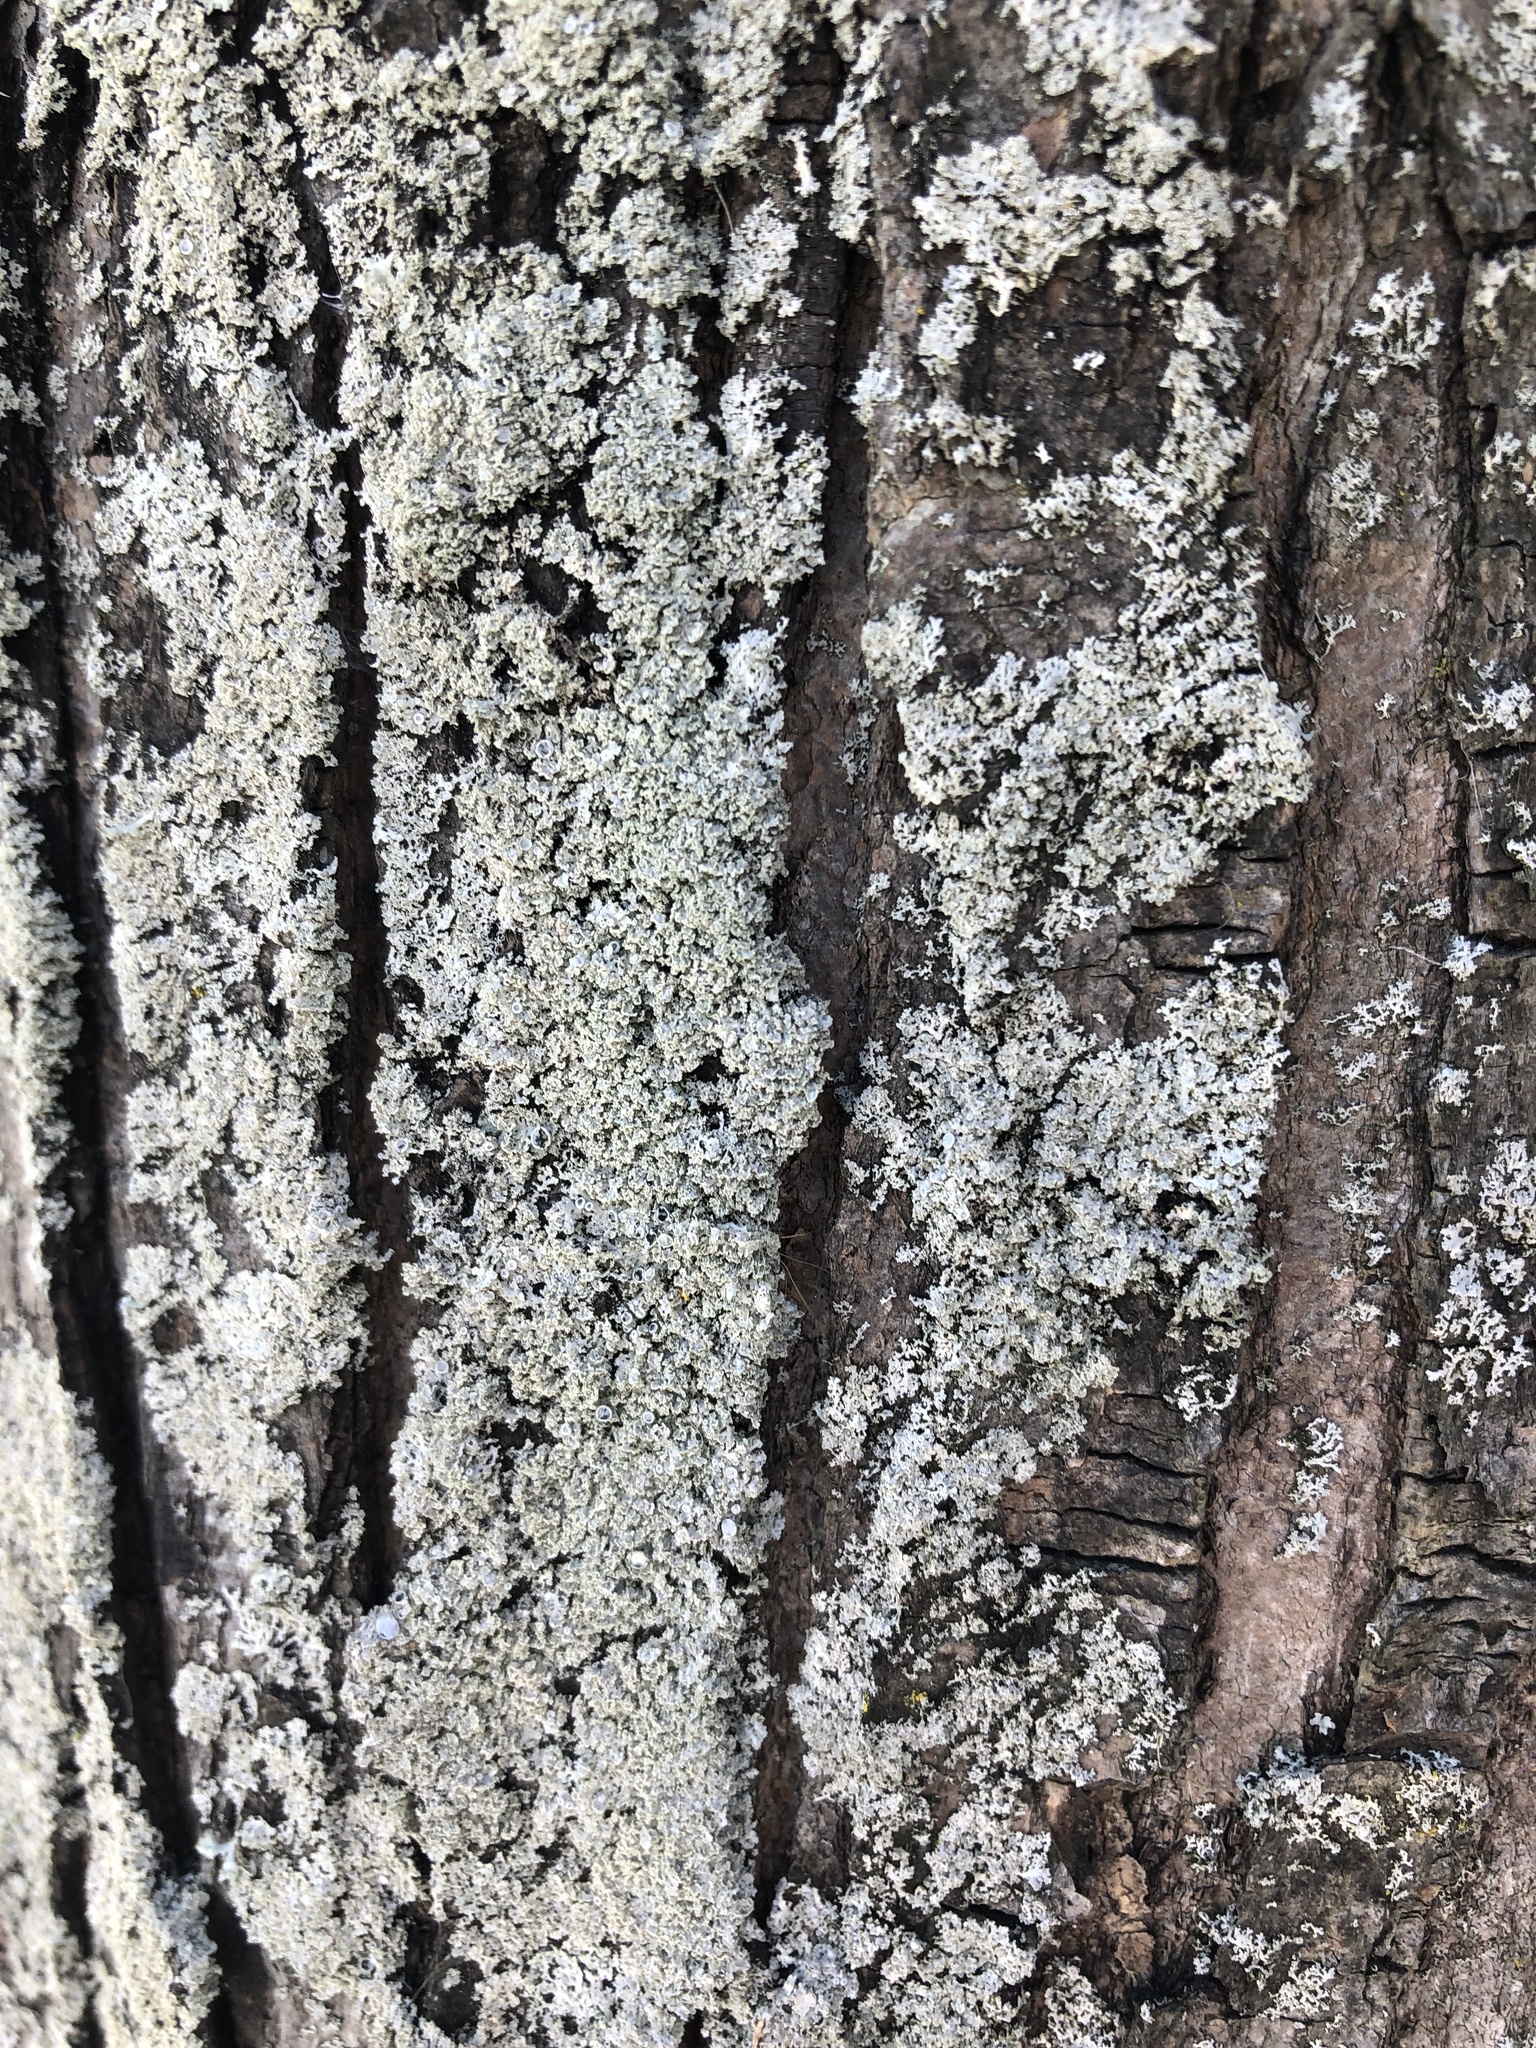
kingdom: Fungi
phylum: Ascomycota
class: Lecanoromycetes
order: Caliciales
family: Physciaceae
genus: Physcia
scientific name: Physcia millegrana
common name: Rosette lichen
